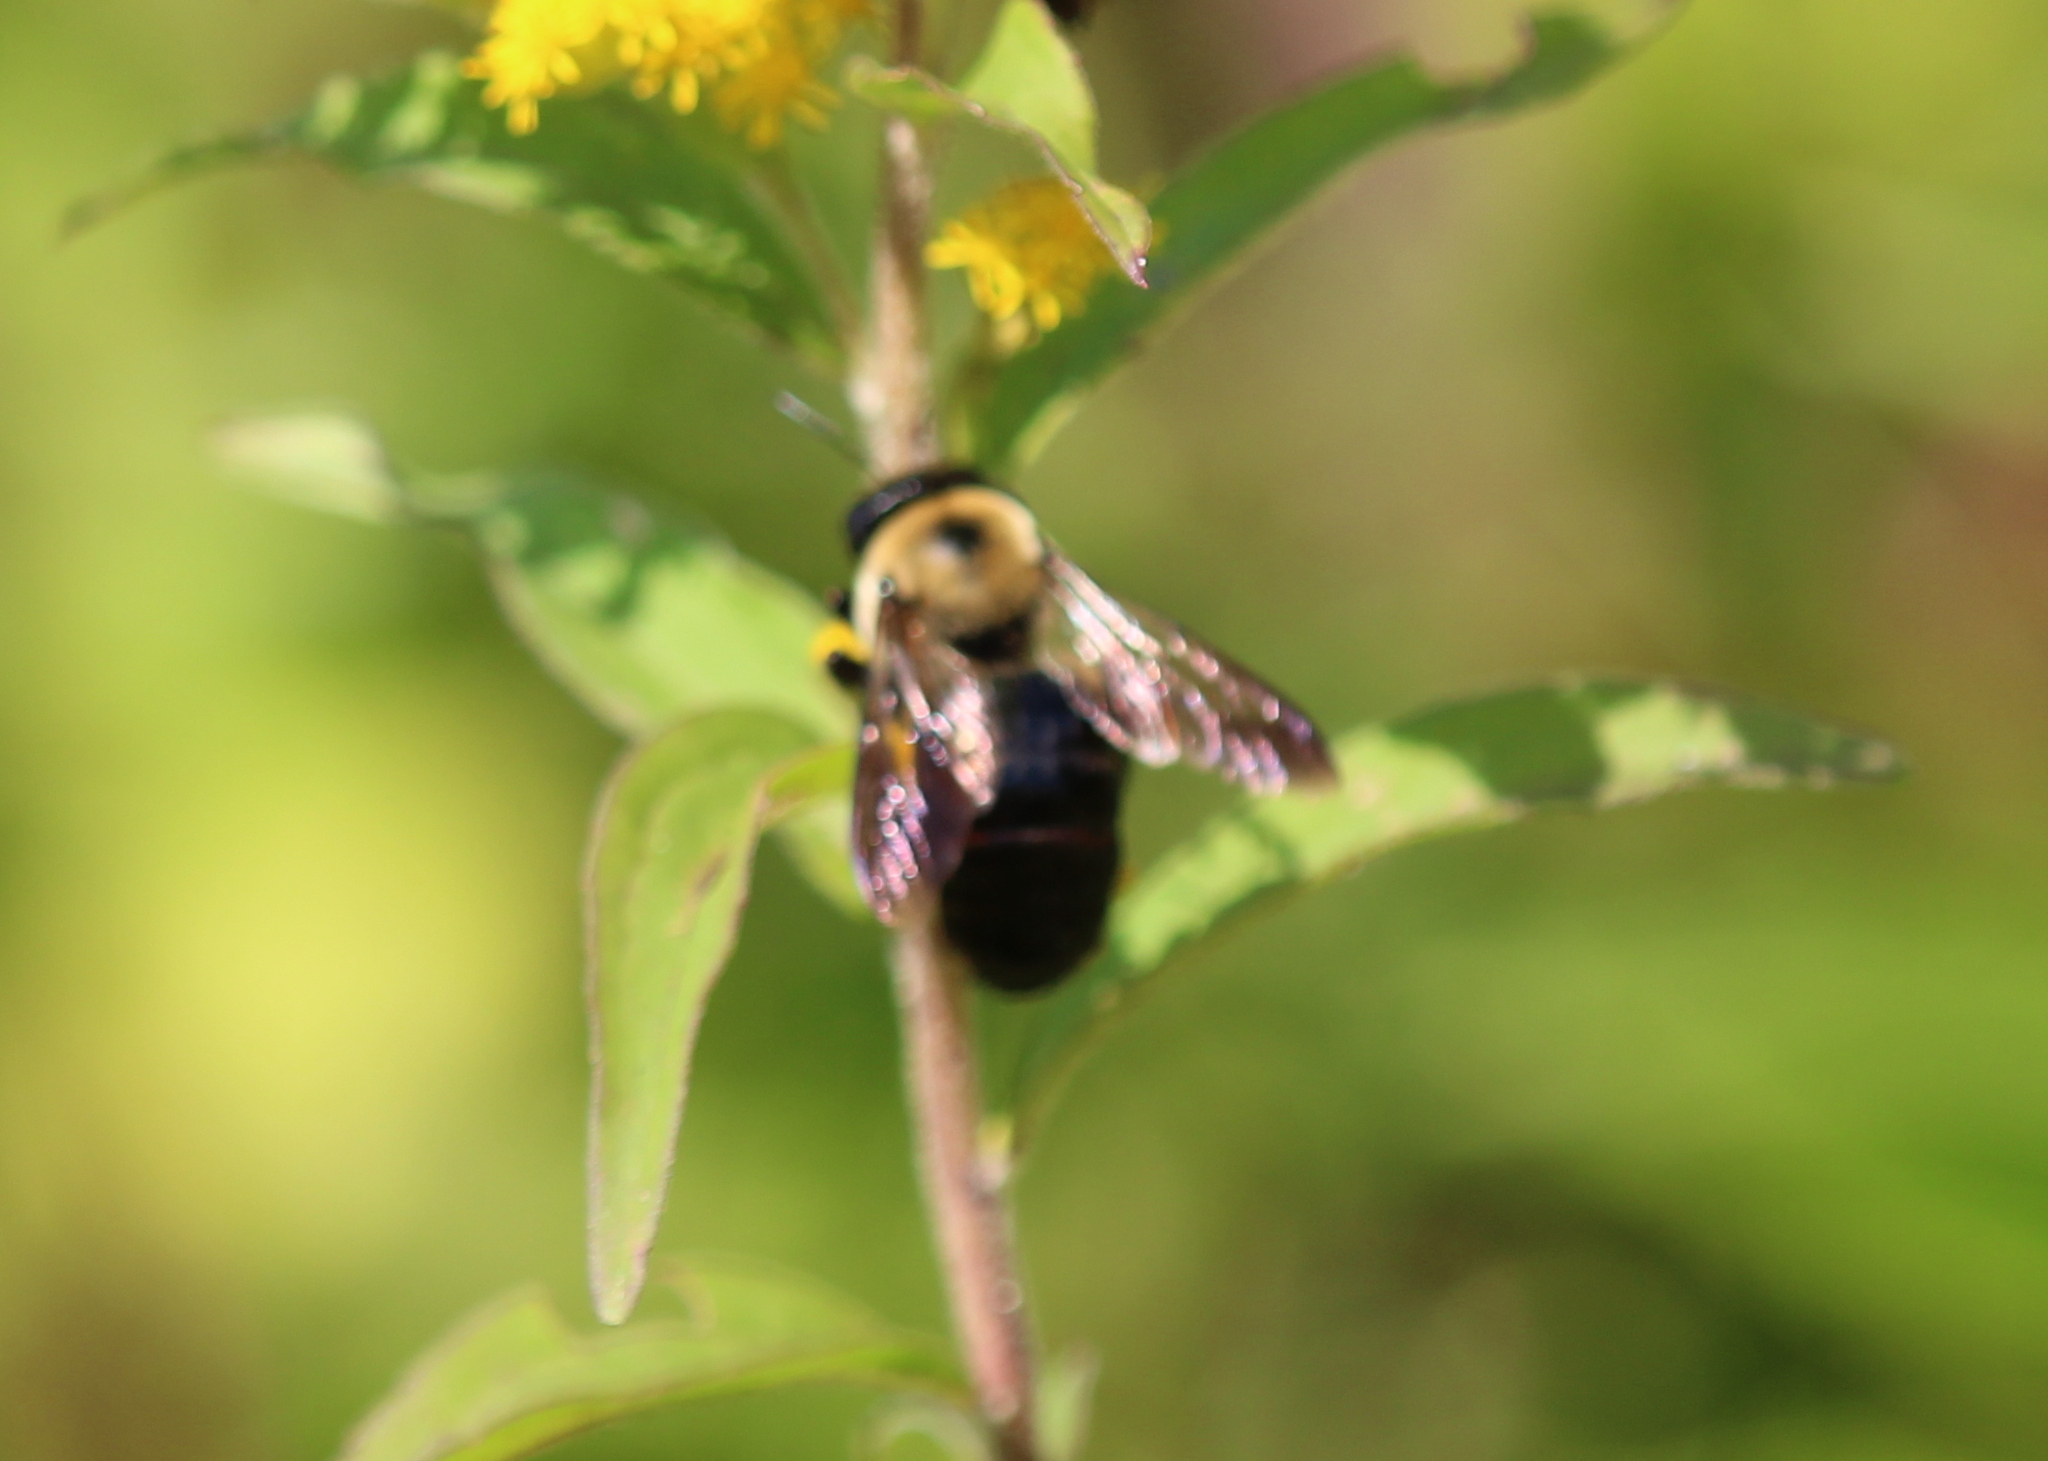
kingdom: Animalia
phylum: Arthropoda
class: Insecta
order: Hymenoptera
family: Apidae
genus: Xylocopa
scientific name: Xylocopa virginica
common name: Carpenter bee
